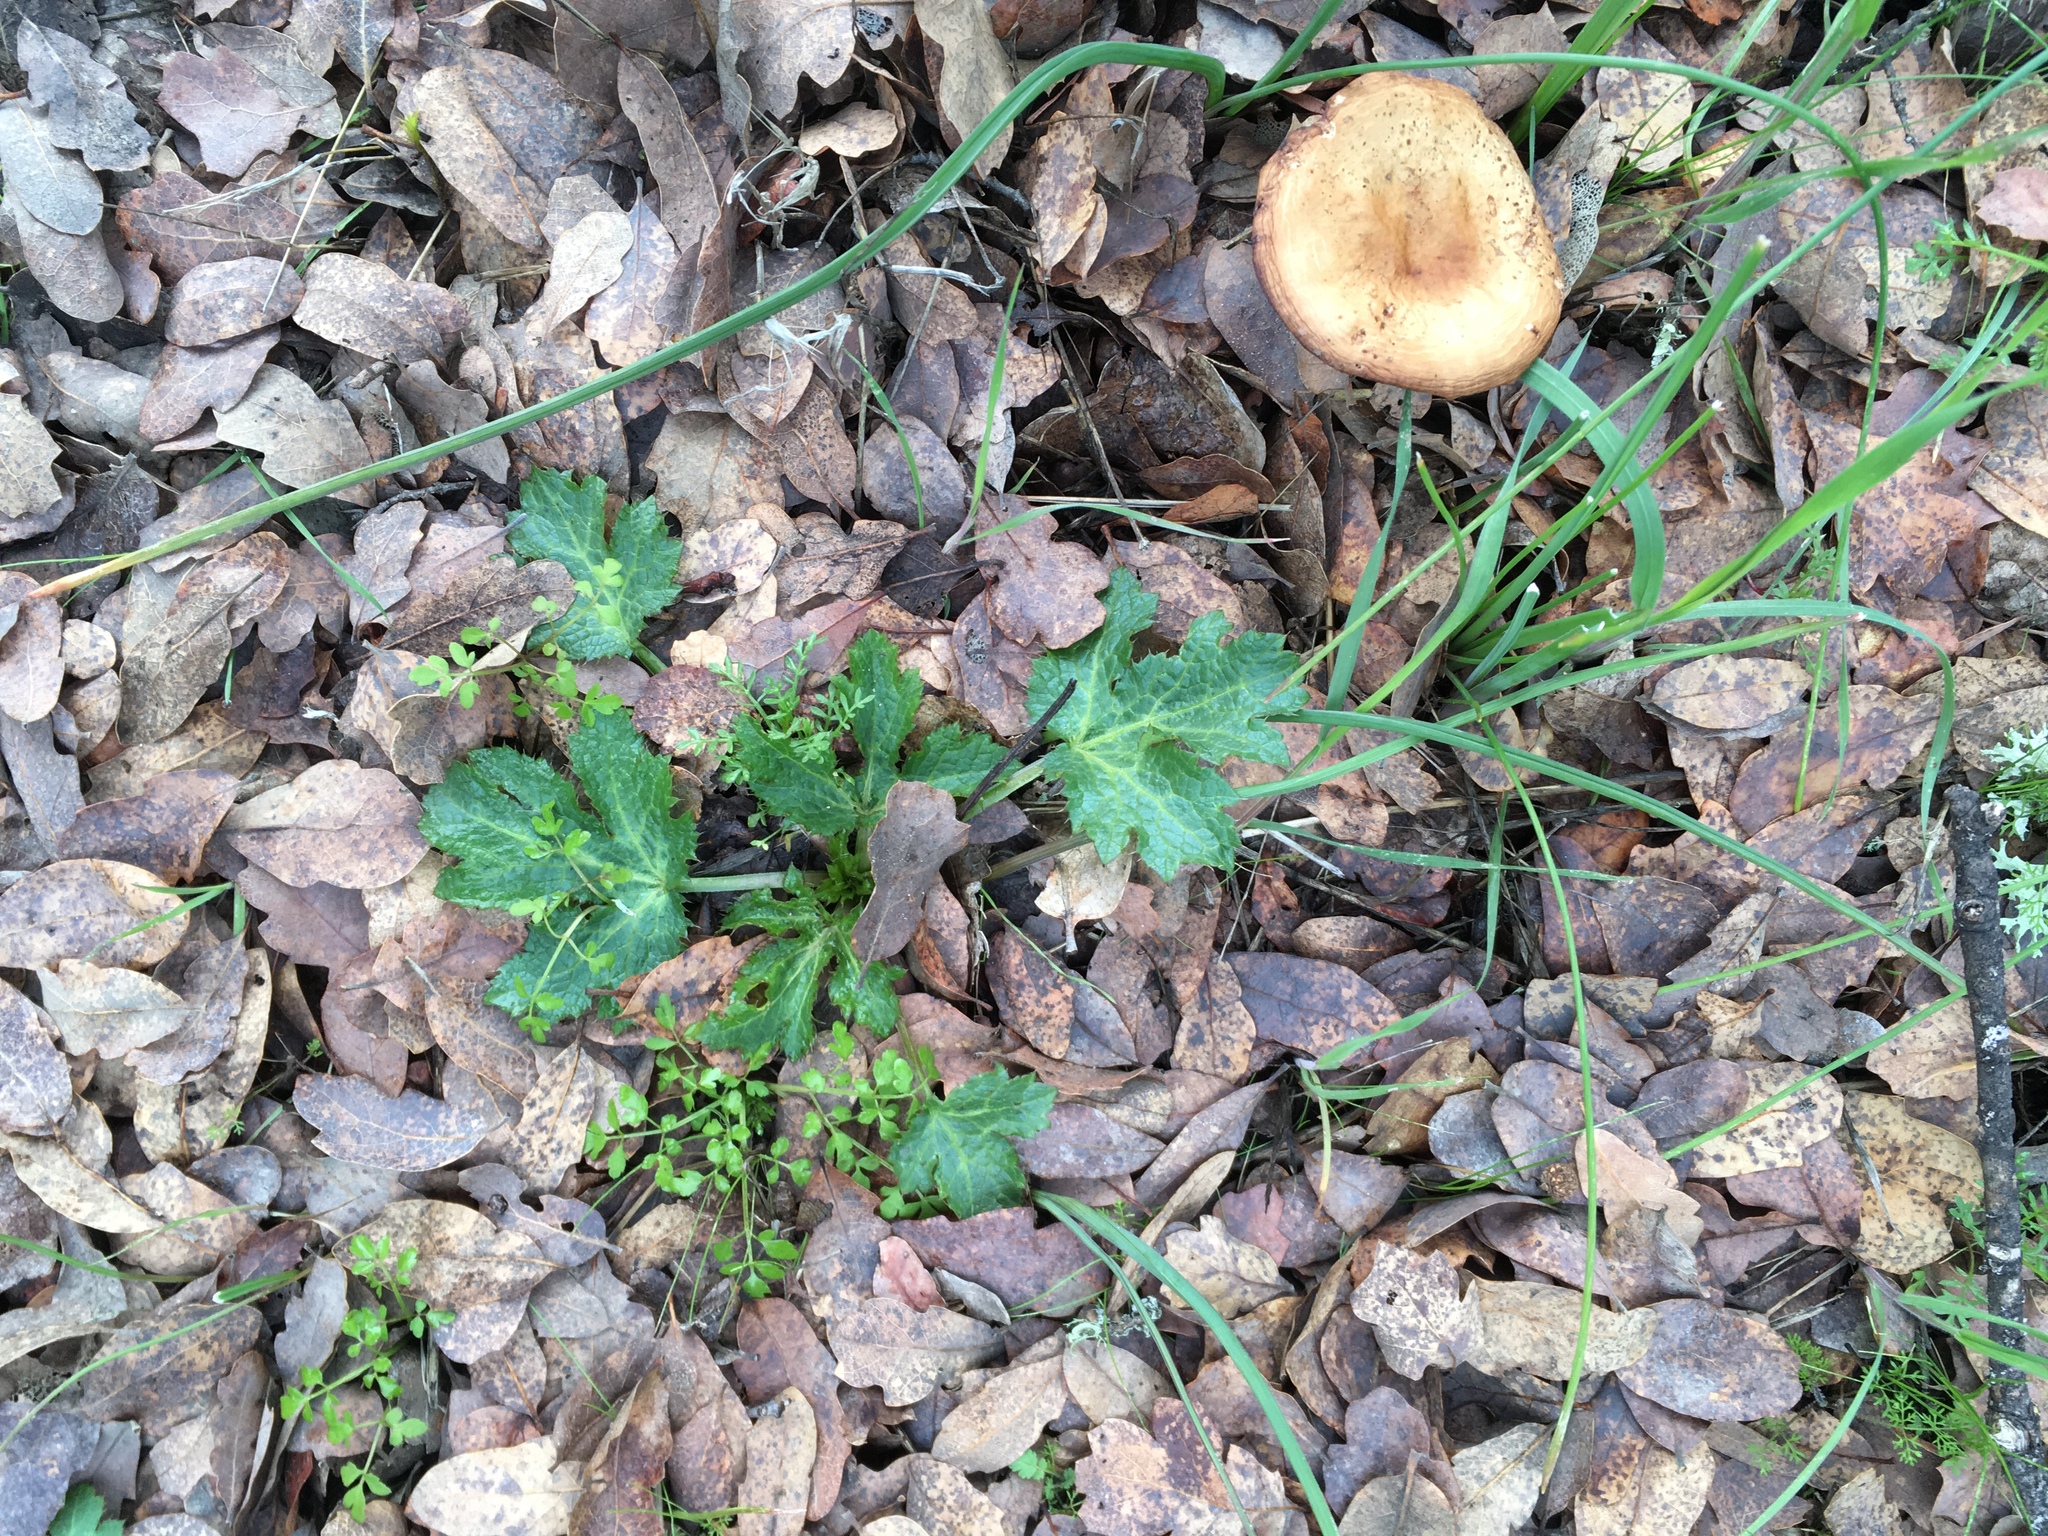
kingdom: Plantae
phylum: Tracheophyta
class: Magnoliopsida
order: Apiales
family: Apiaceae
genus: Sanicula
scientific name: Sanicula crassicaulis
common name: Western snakeroot
